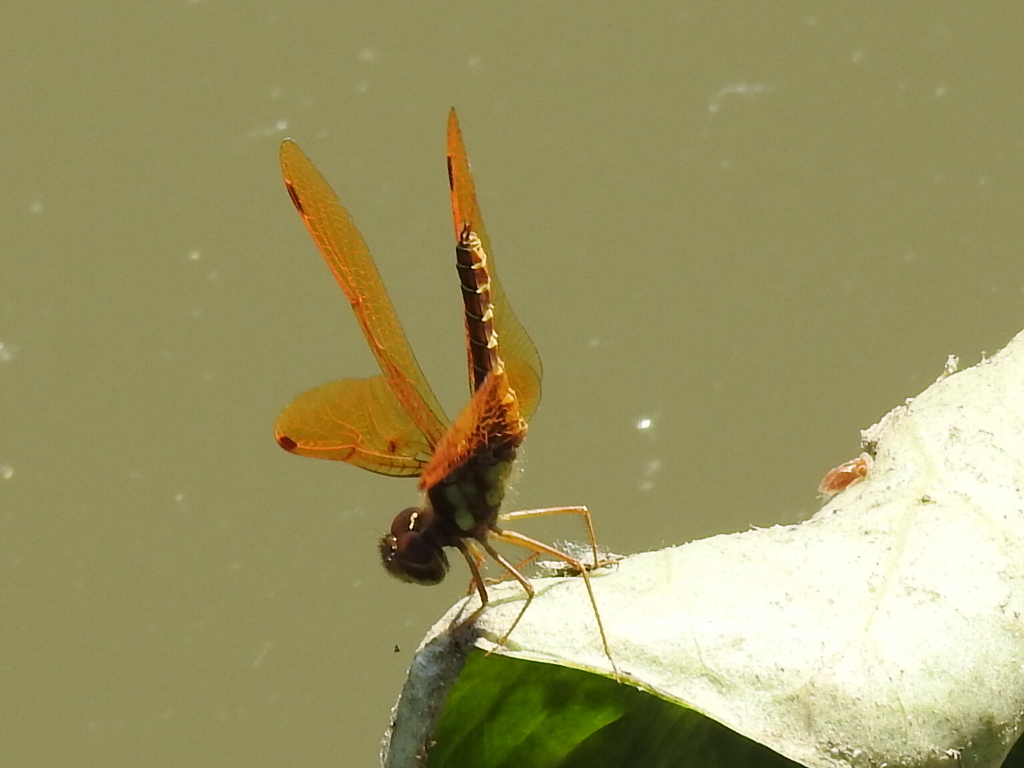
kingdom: Animalia
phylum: Arthropoda
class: Insecta
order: Odonata
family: Libellulidae
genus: Perithemis
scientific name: Perithemis tenera
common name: Eastern amberwing
